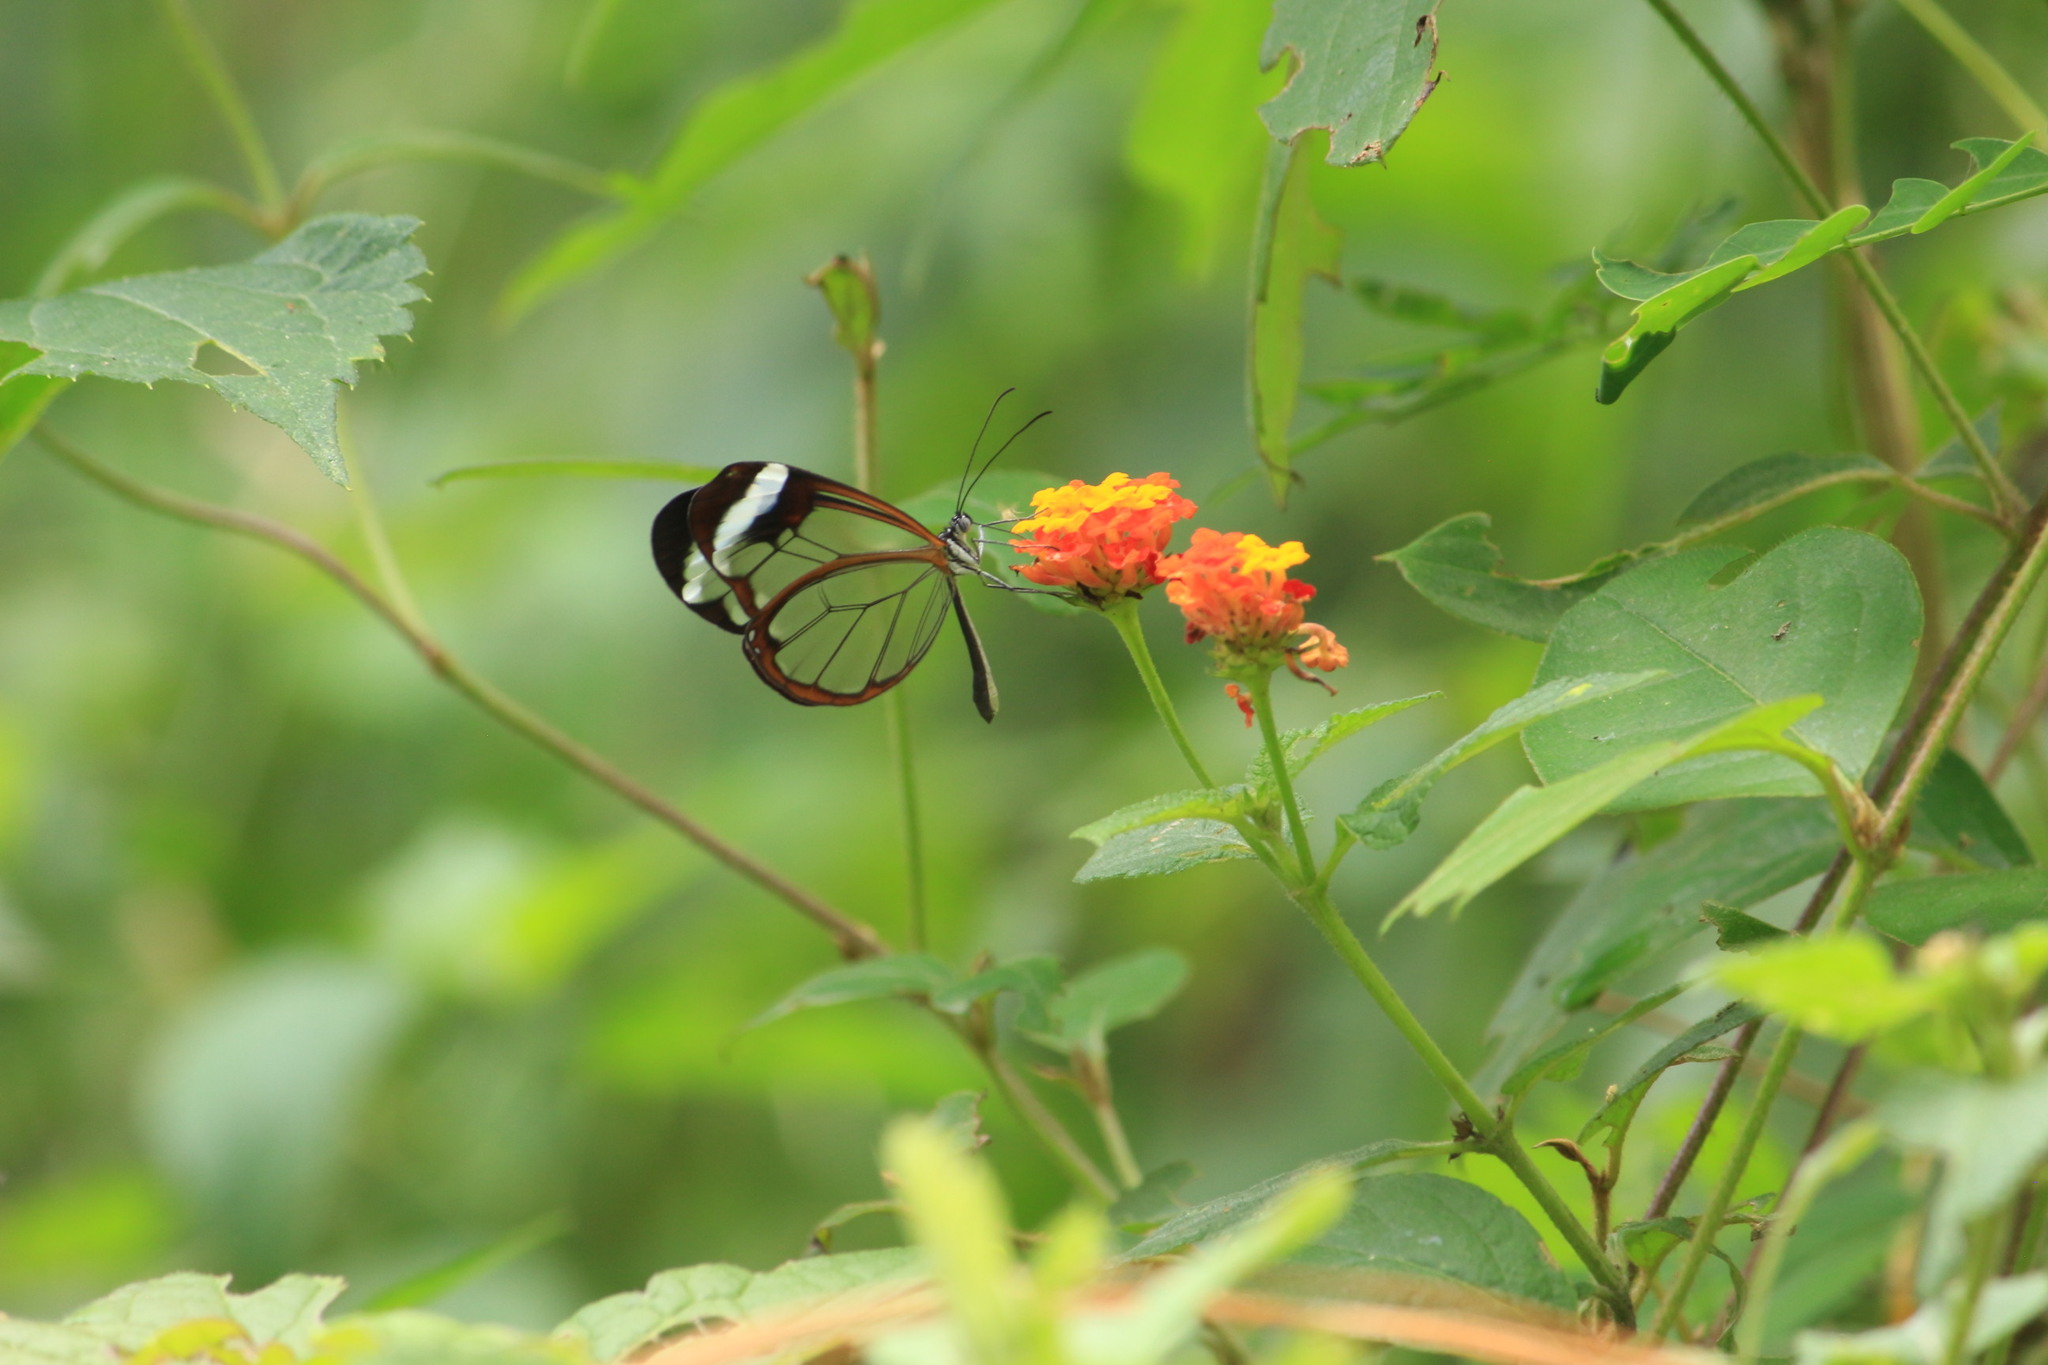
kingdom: Animalia
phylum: Arthropoda
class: Insecta
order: Lepidoptera
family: Nymphalidae
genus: Greta
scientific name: Greta morgane
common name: Thick-tipped greta
